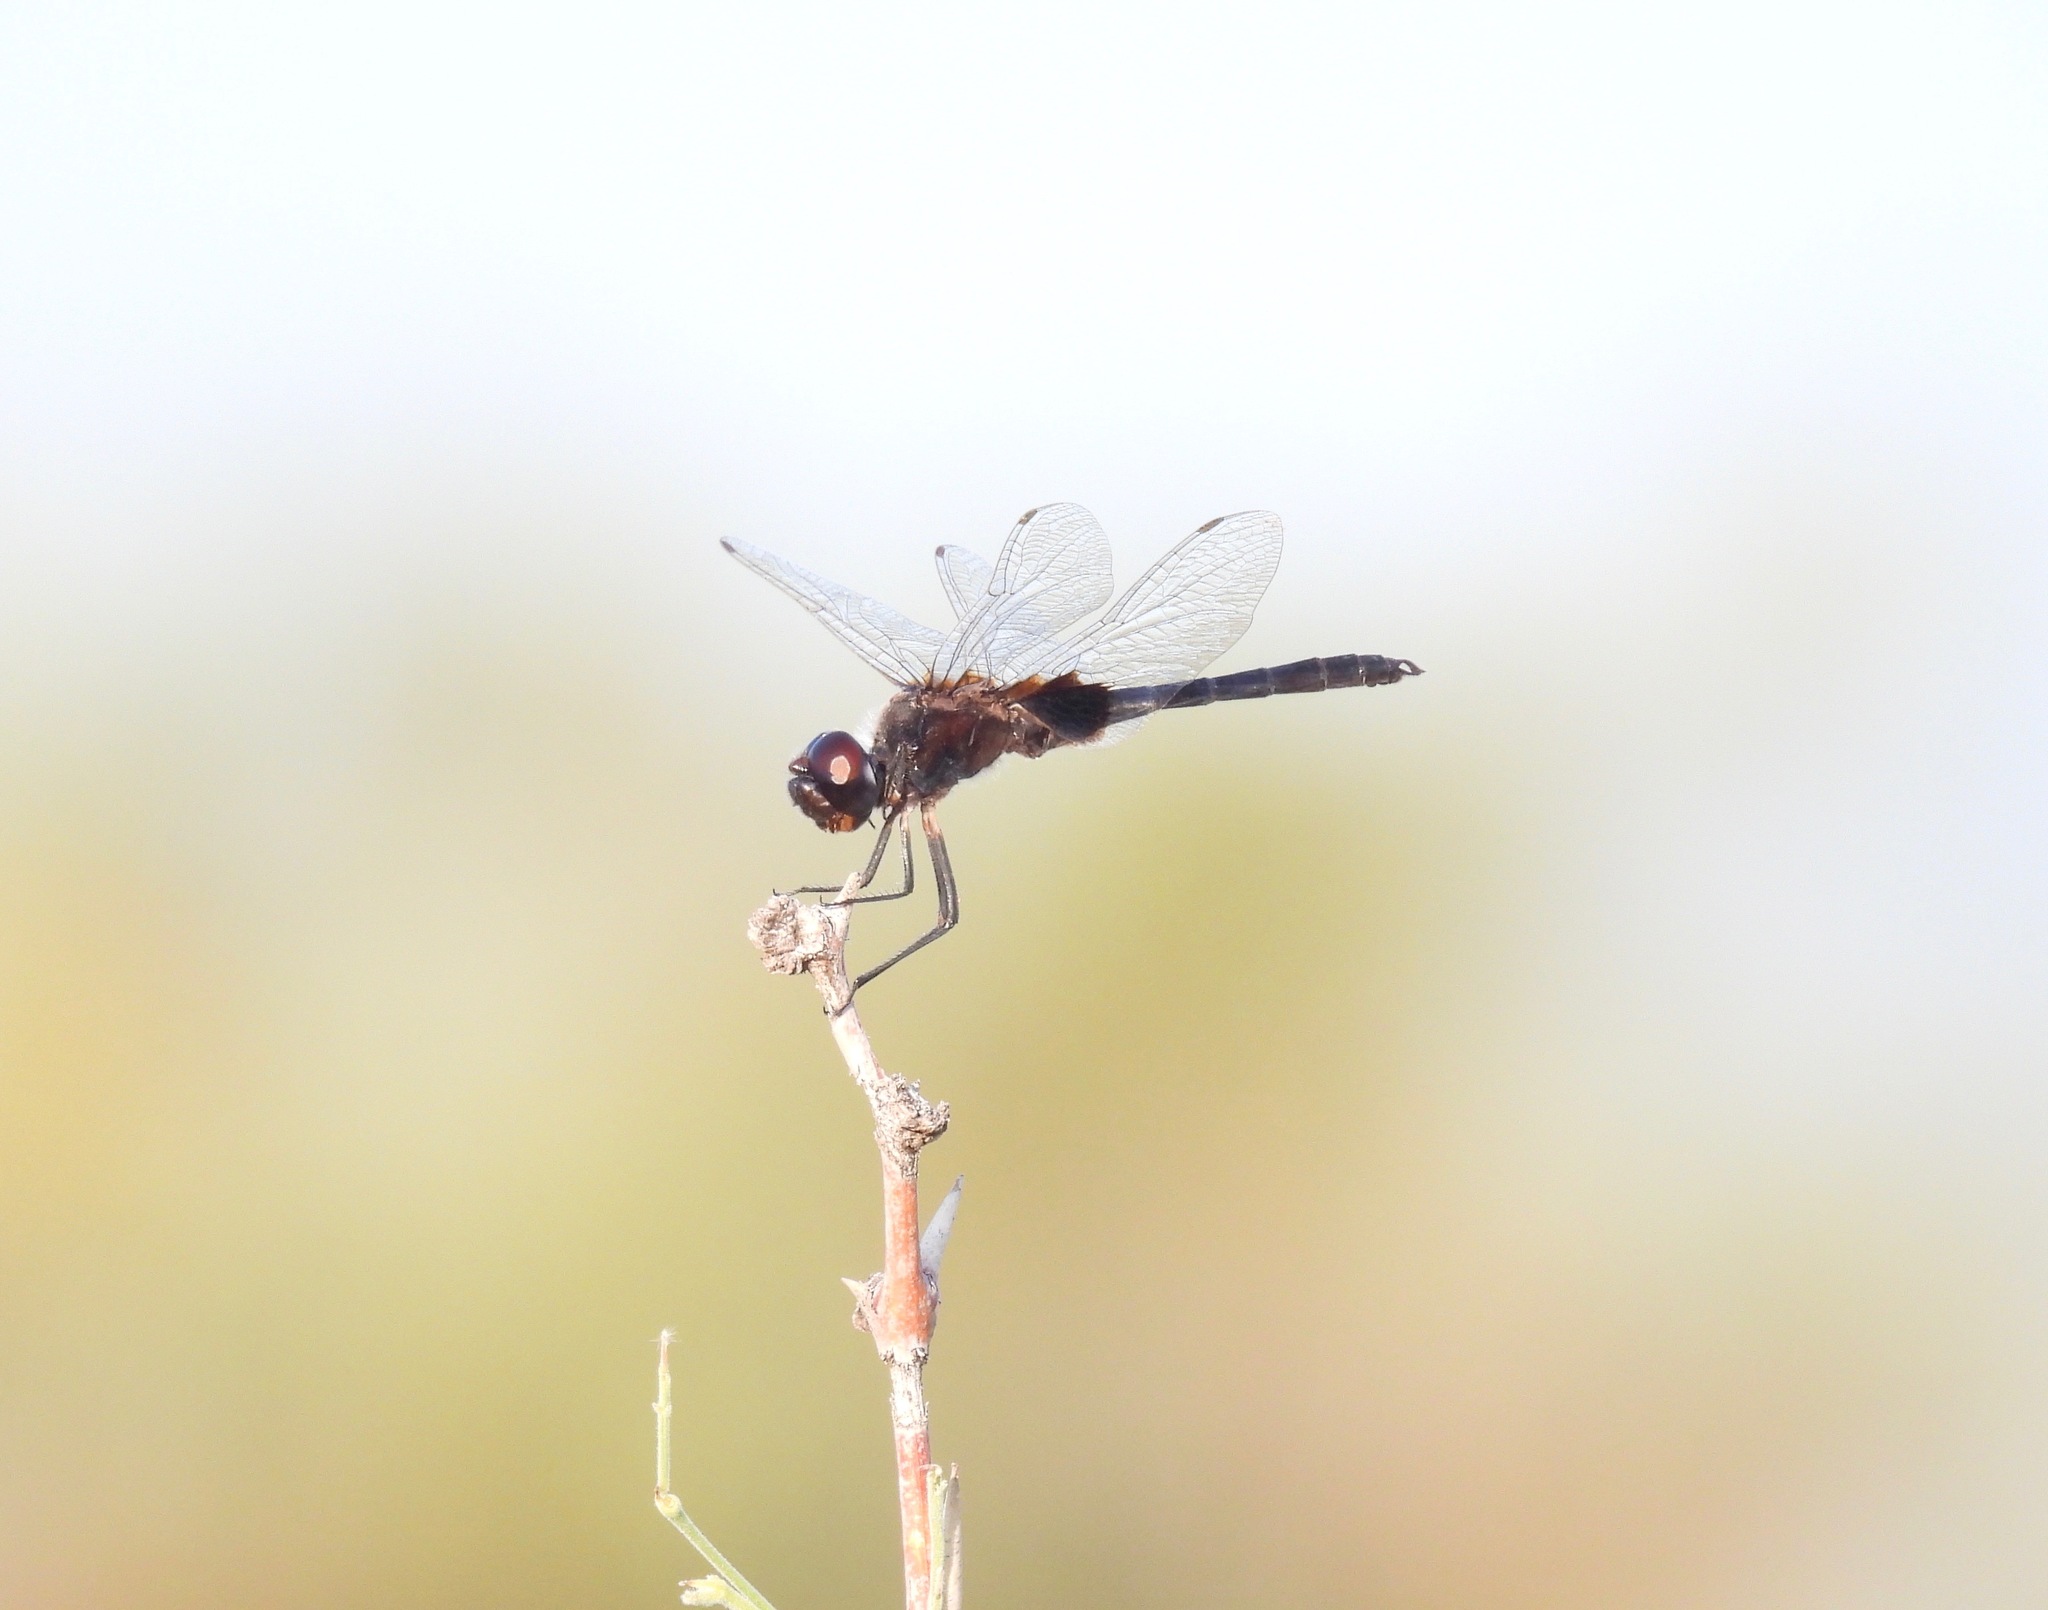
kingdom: Animalia
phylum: Arthropoda
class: Insecta
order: Odonata
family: Libellulidae
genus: Macrodiplax
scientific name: Macrodiplax balteata
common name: Marl pennant
